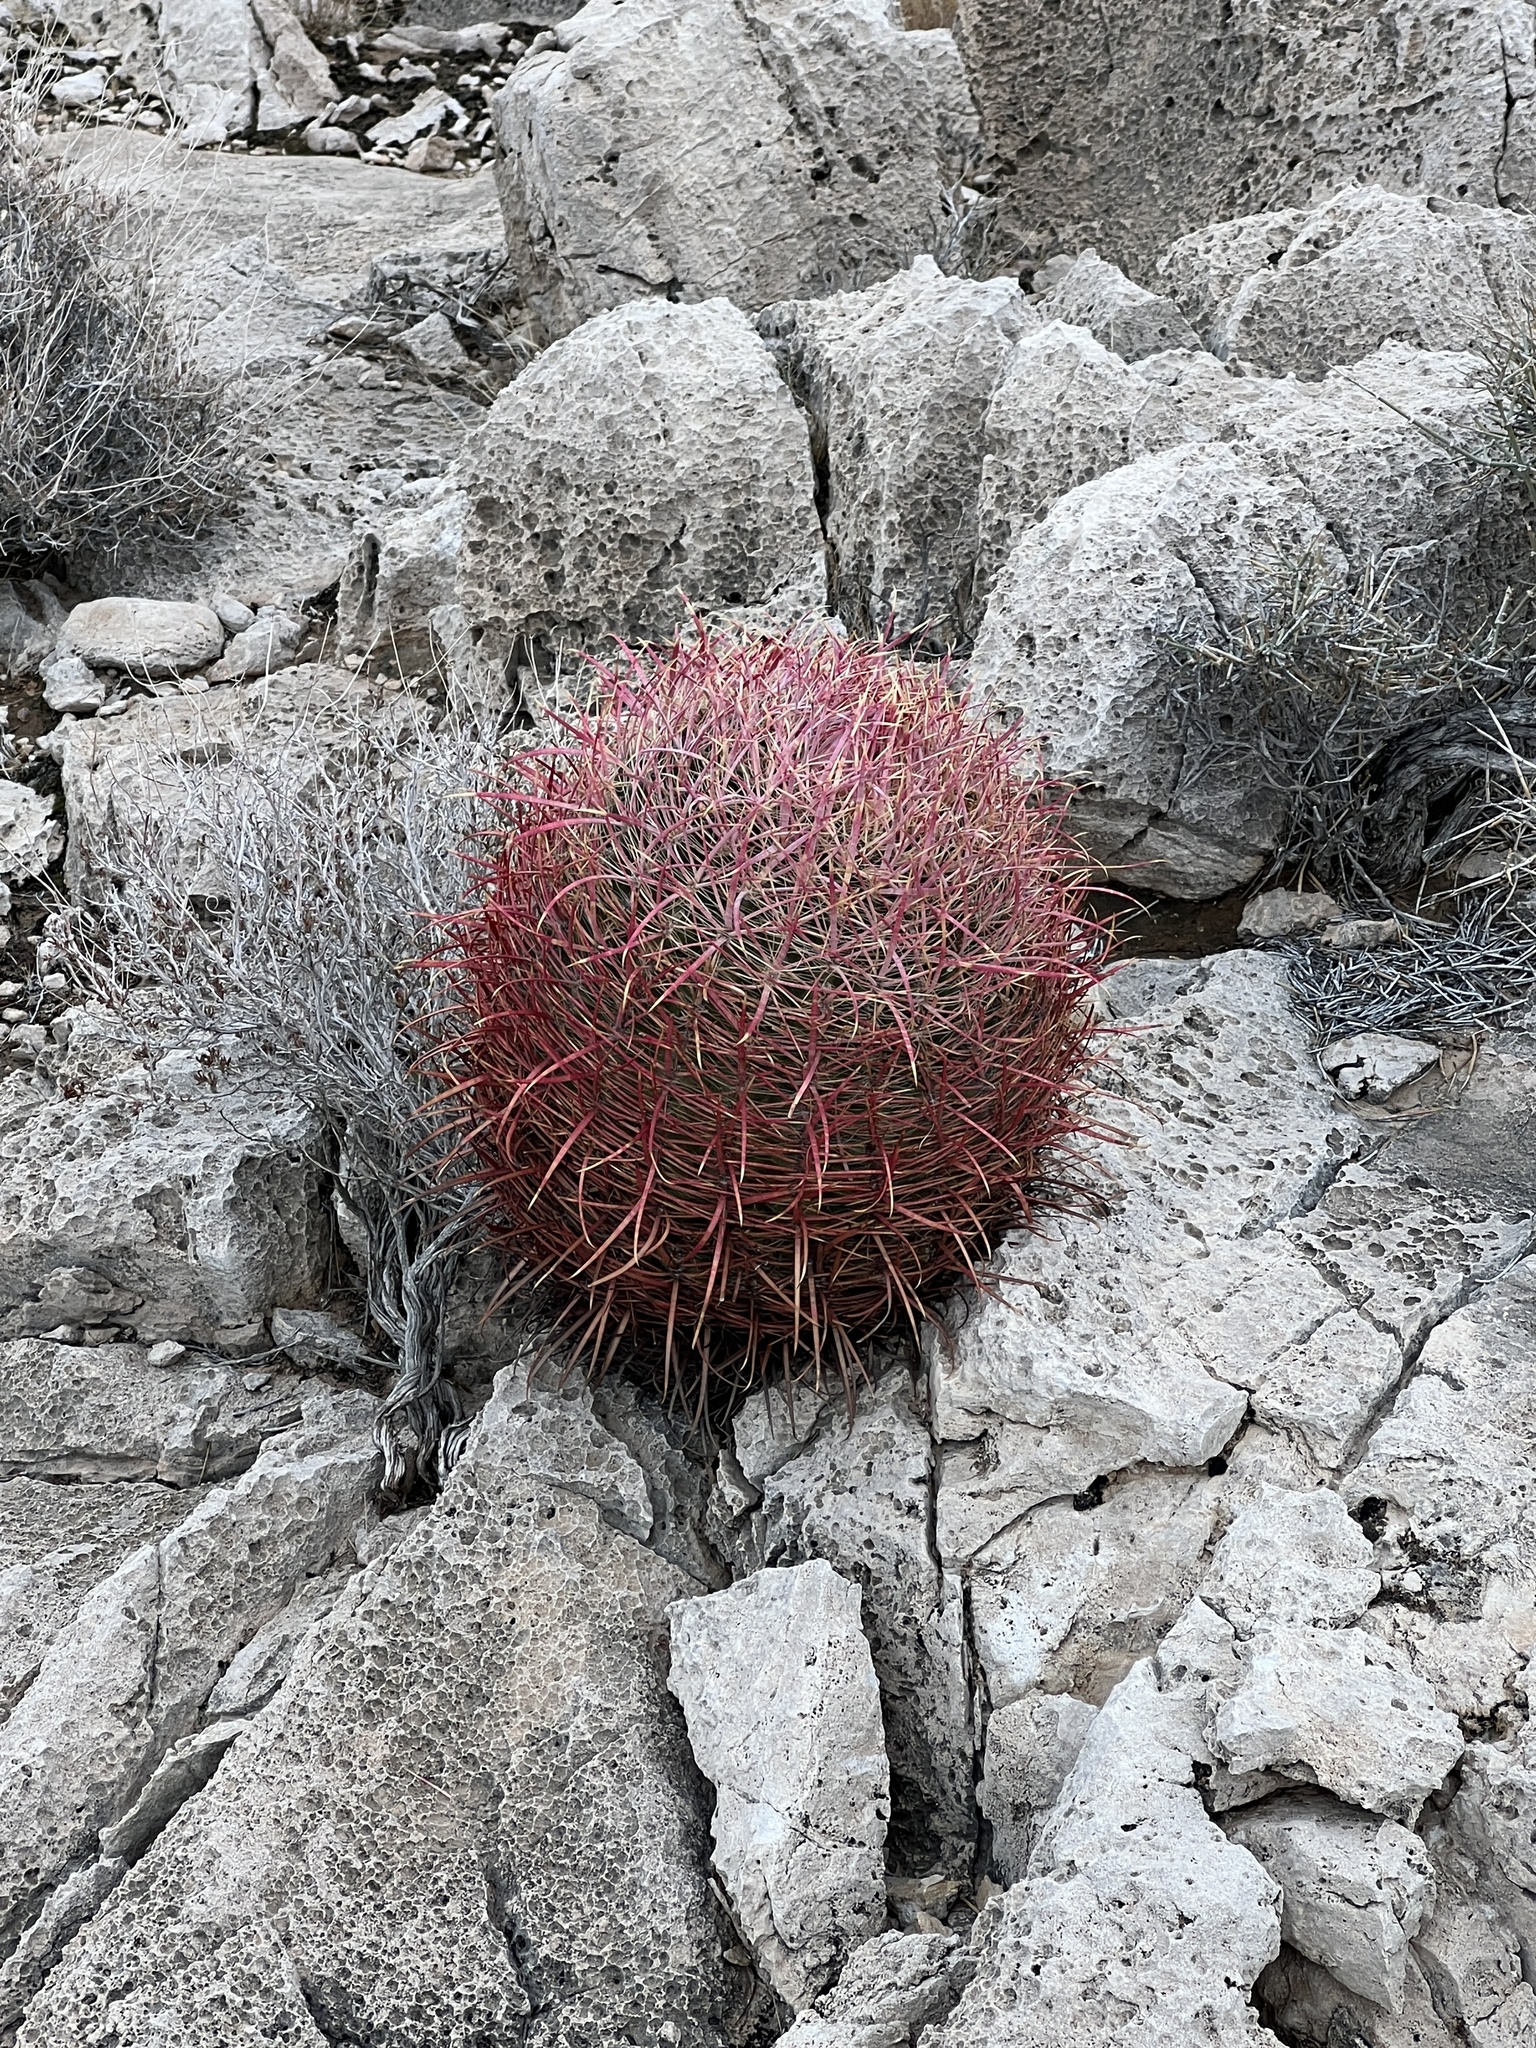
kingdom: Plantae
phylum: Tracheophyta
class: Magnoliopsida
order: Caryophyllales
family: Cactaceae
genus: Ferocactus
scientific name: Ferocactus cylindraceus
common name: California barrel cactus
